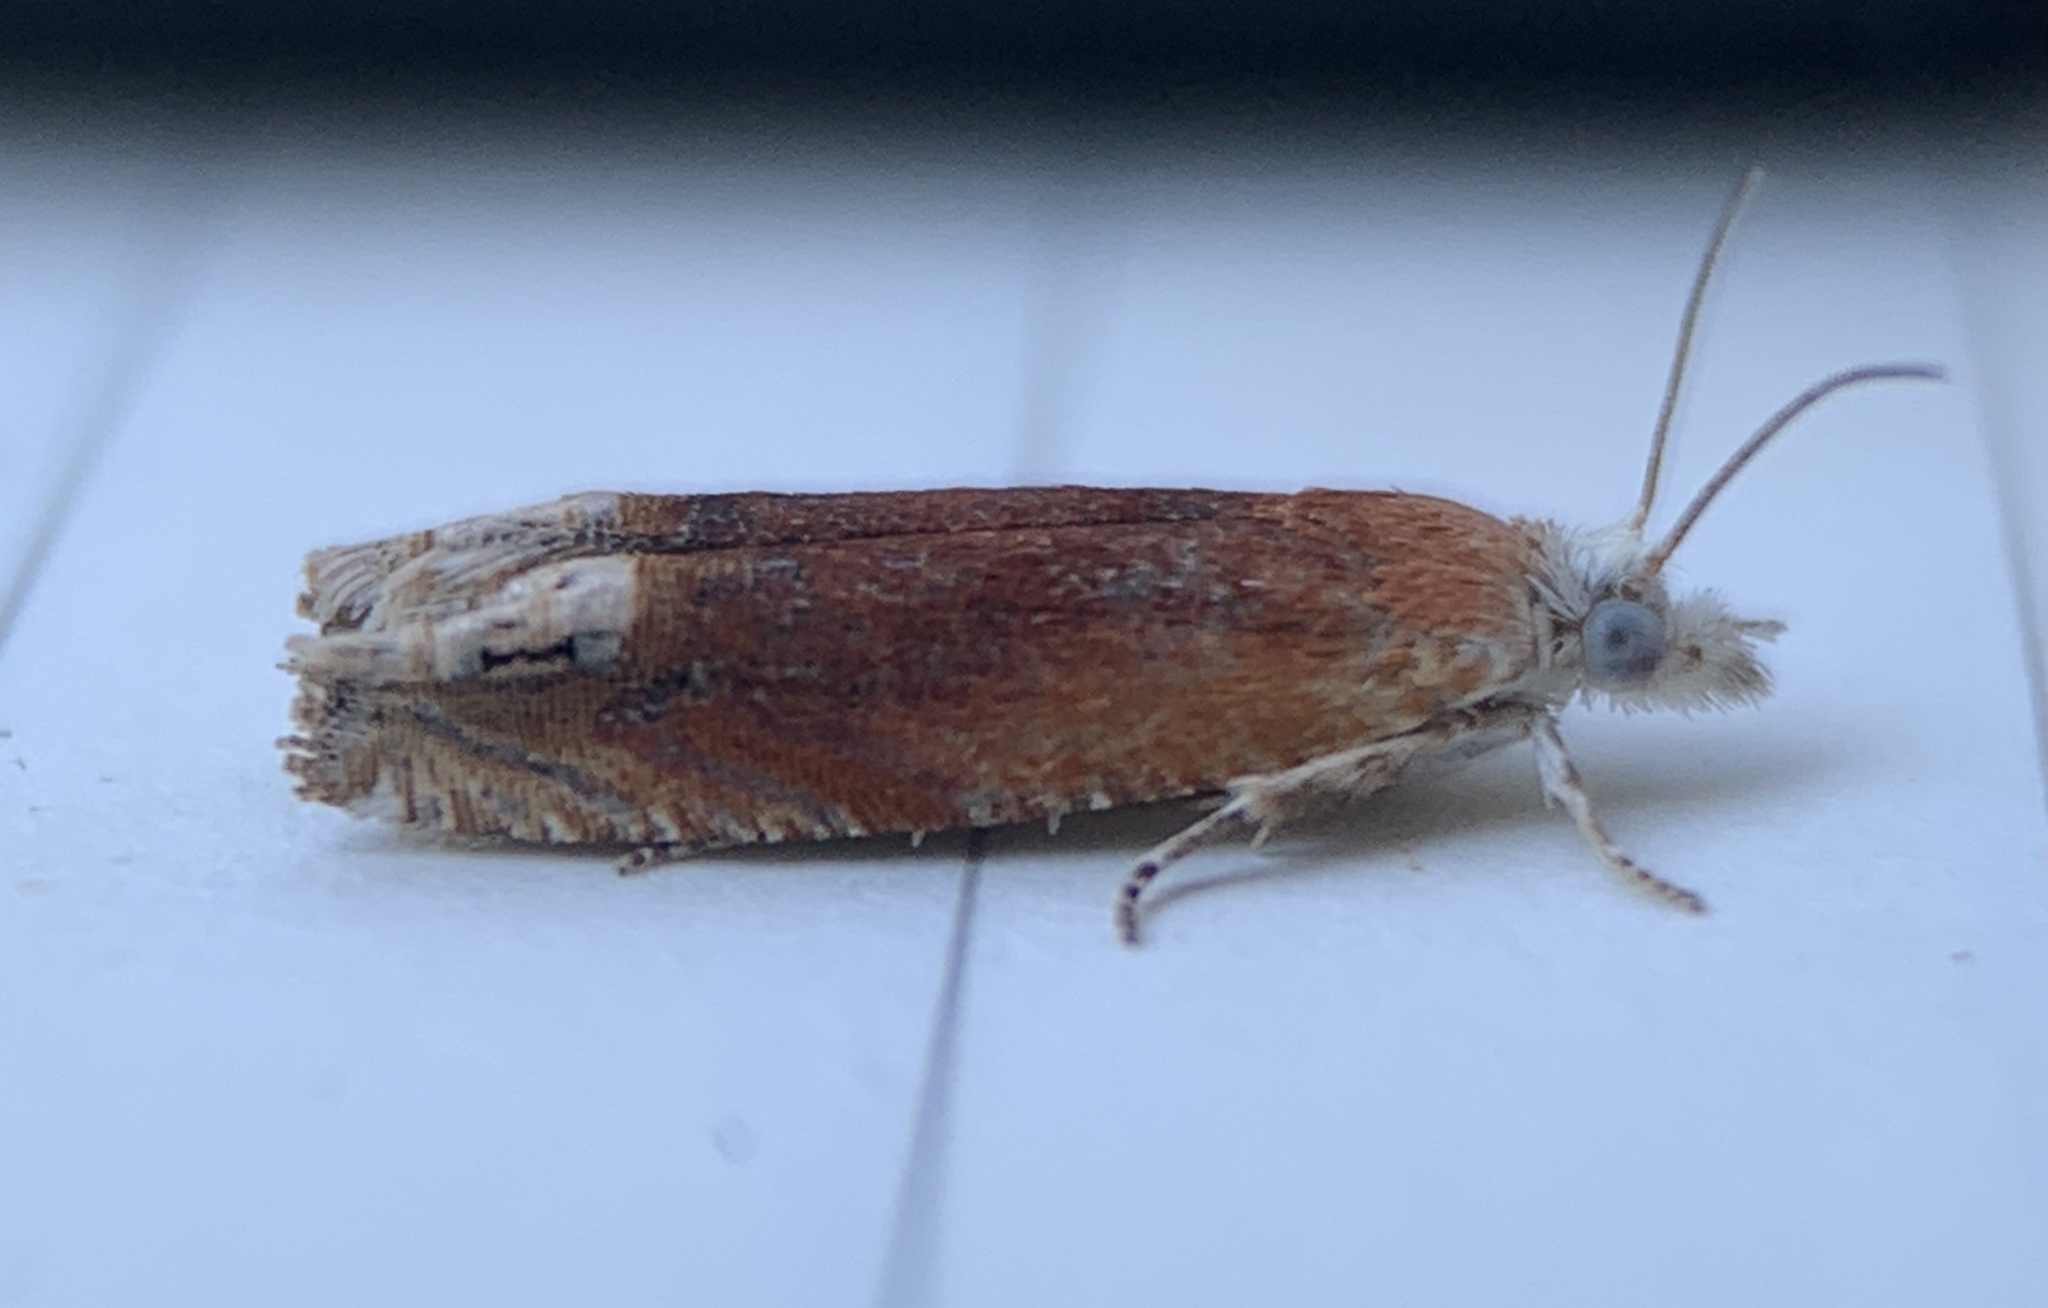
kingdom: Animalia
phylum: Arthropoda
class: Insecta
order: Lepidoptera
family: Tortricidae
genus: Eucosma
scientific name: Eucosma raracana
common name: Reddish eucosma moth
